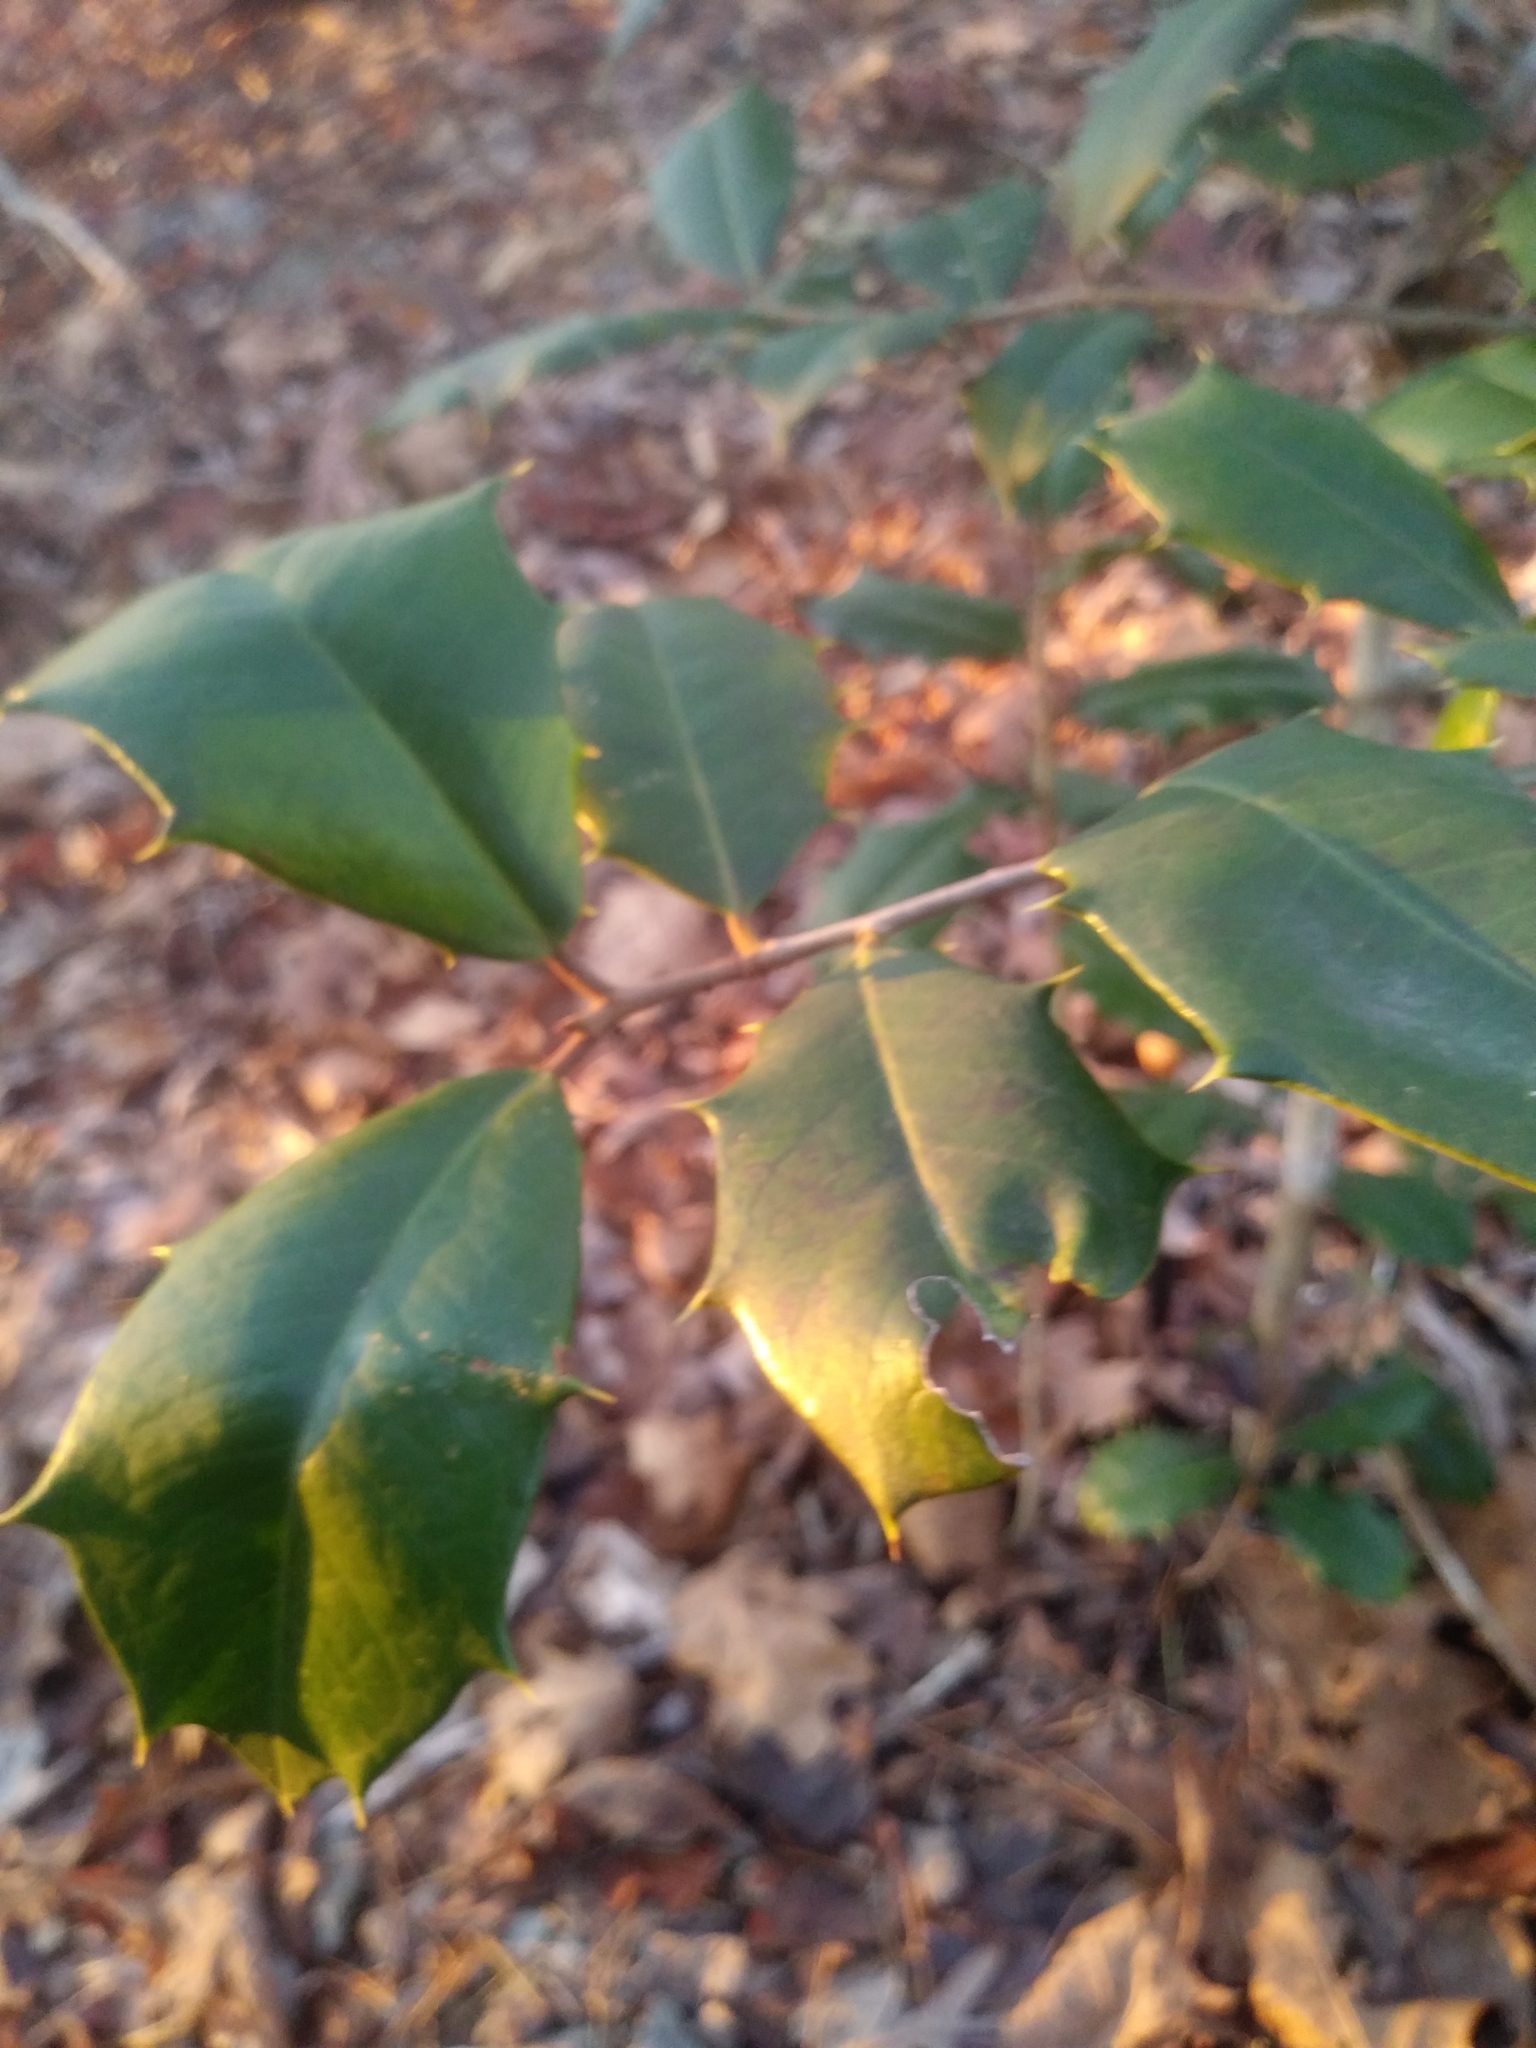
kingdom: Plantae
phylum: Tracheophyta
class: Magnoliopsida
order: Aquifoliales
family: Aquifoliaceae
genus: Ilex
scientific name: Ilex opaca
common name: American holly
